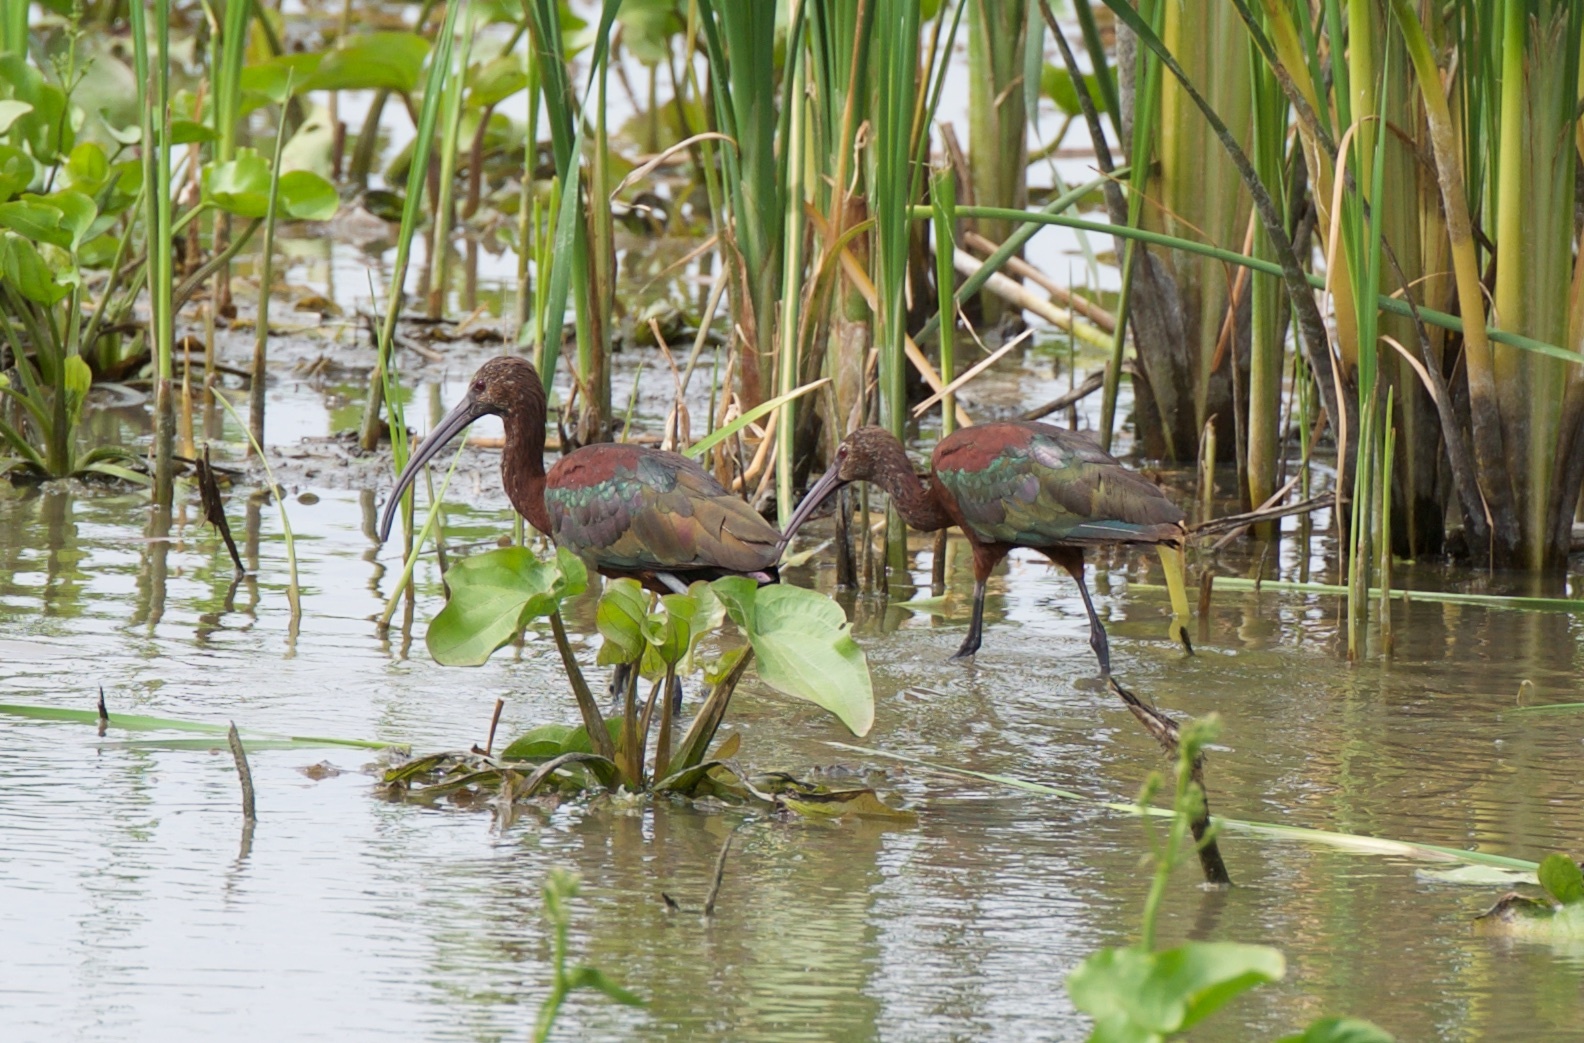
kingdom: Animalia
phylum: Chordata
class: Aves
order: Pelecaniformes
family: Threskiornithidae
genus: Plegadis
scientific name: Plegadis chihi
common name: White-faced ibis
